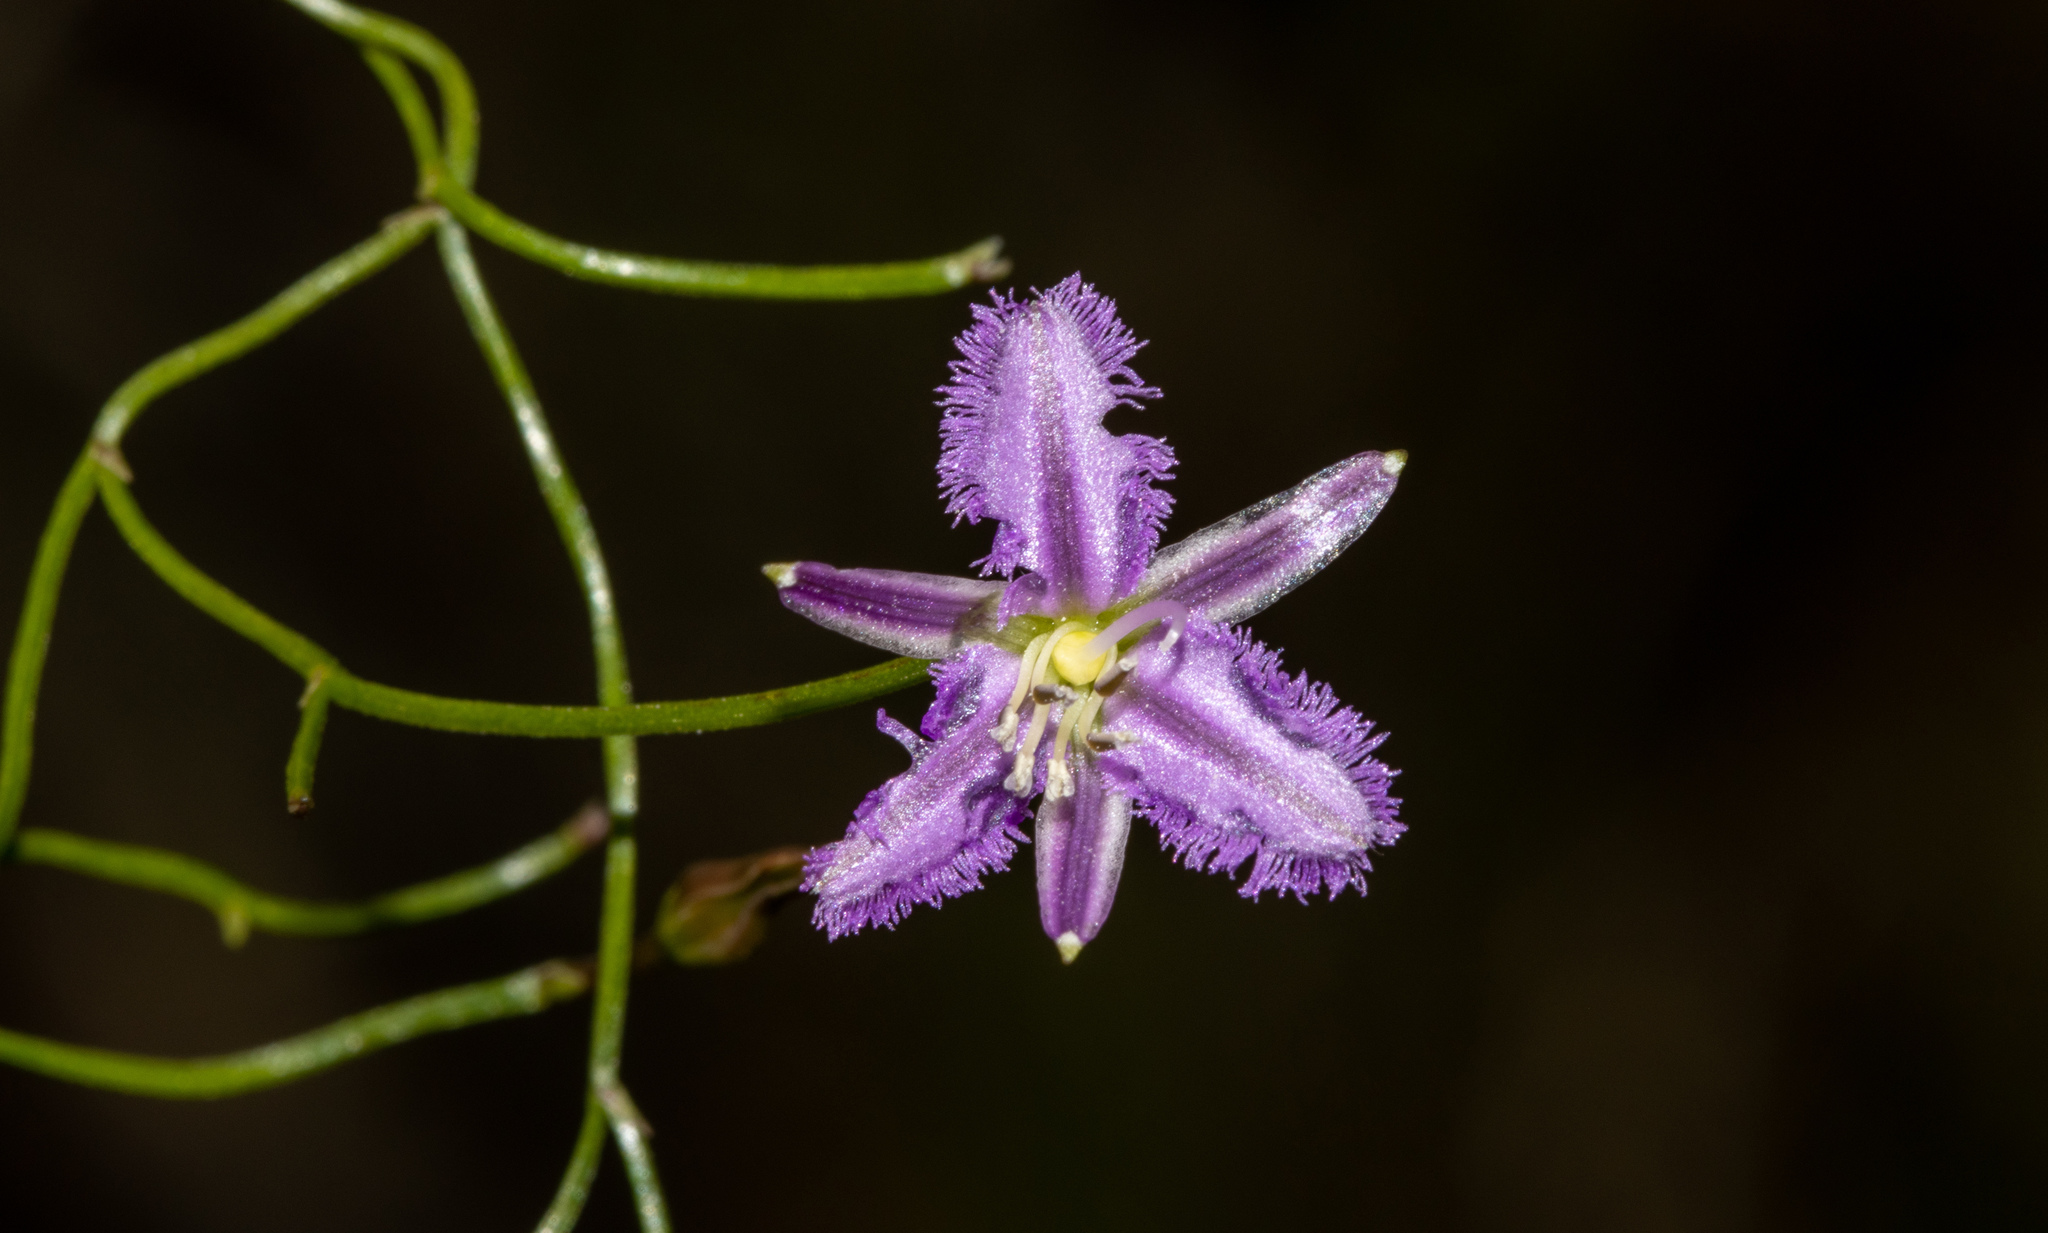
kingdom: Plantae
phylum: Tracheophyta
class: Liliopsida
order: Asparagales
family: Asparagaceae
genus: Thysanotus
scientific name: Thysanotus patersonii
